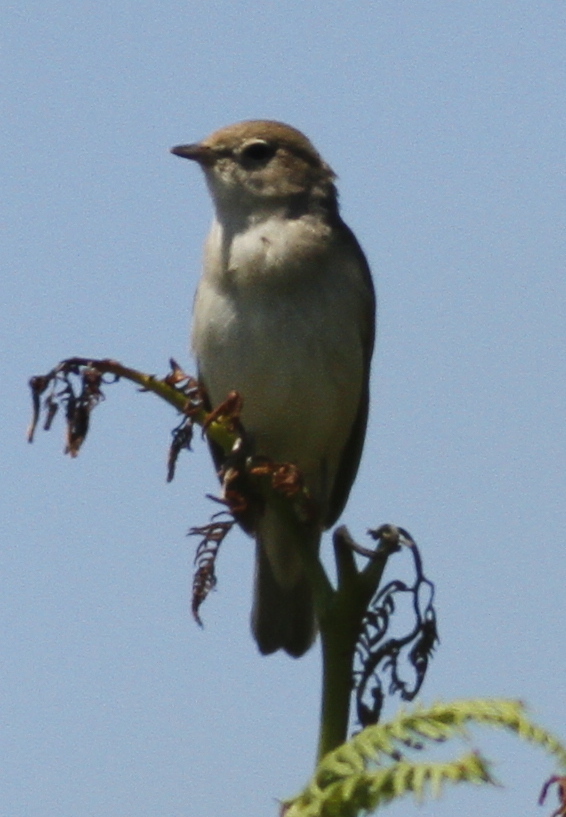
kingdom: Animalia
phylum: Chordata
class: Aves
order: Passeriformes
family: Sylviidae
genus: Sylvia
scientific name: Sylvia borin
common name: Garden warbler
